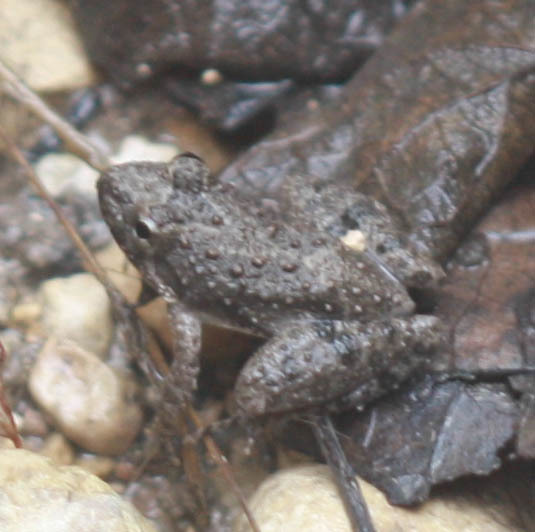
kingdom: Animalia
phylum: Chordata
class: Amphibia
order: Anura
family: Hylidae
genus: Acris
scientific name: Acris blanchardi
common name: Blanchard's cricket frog
